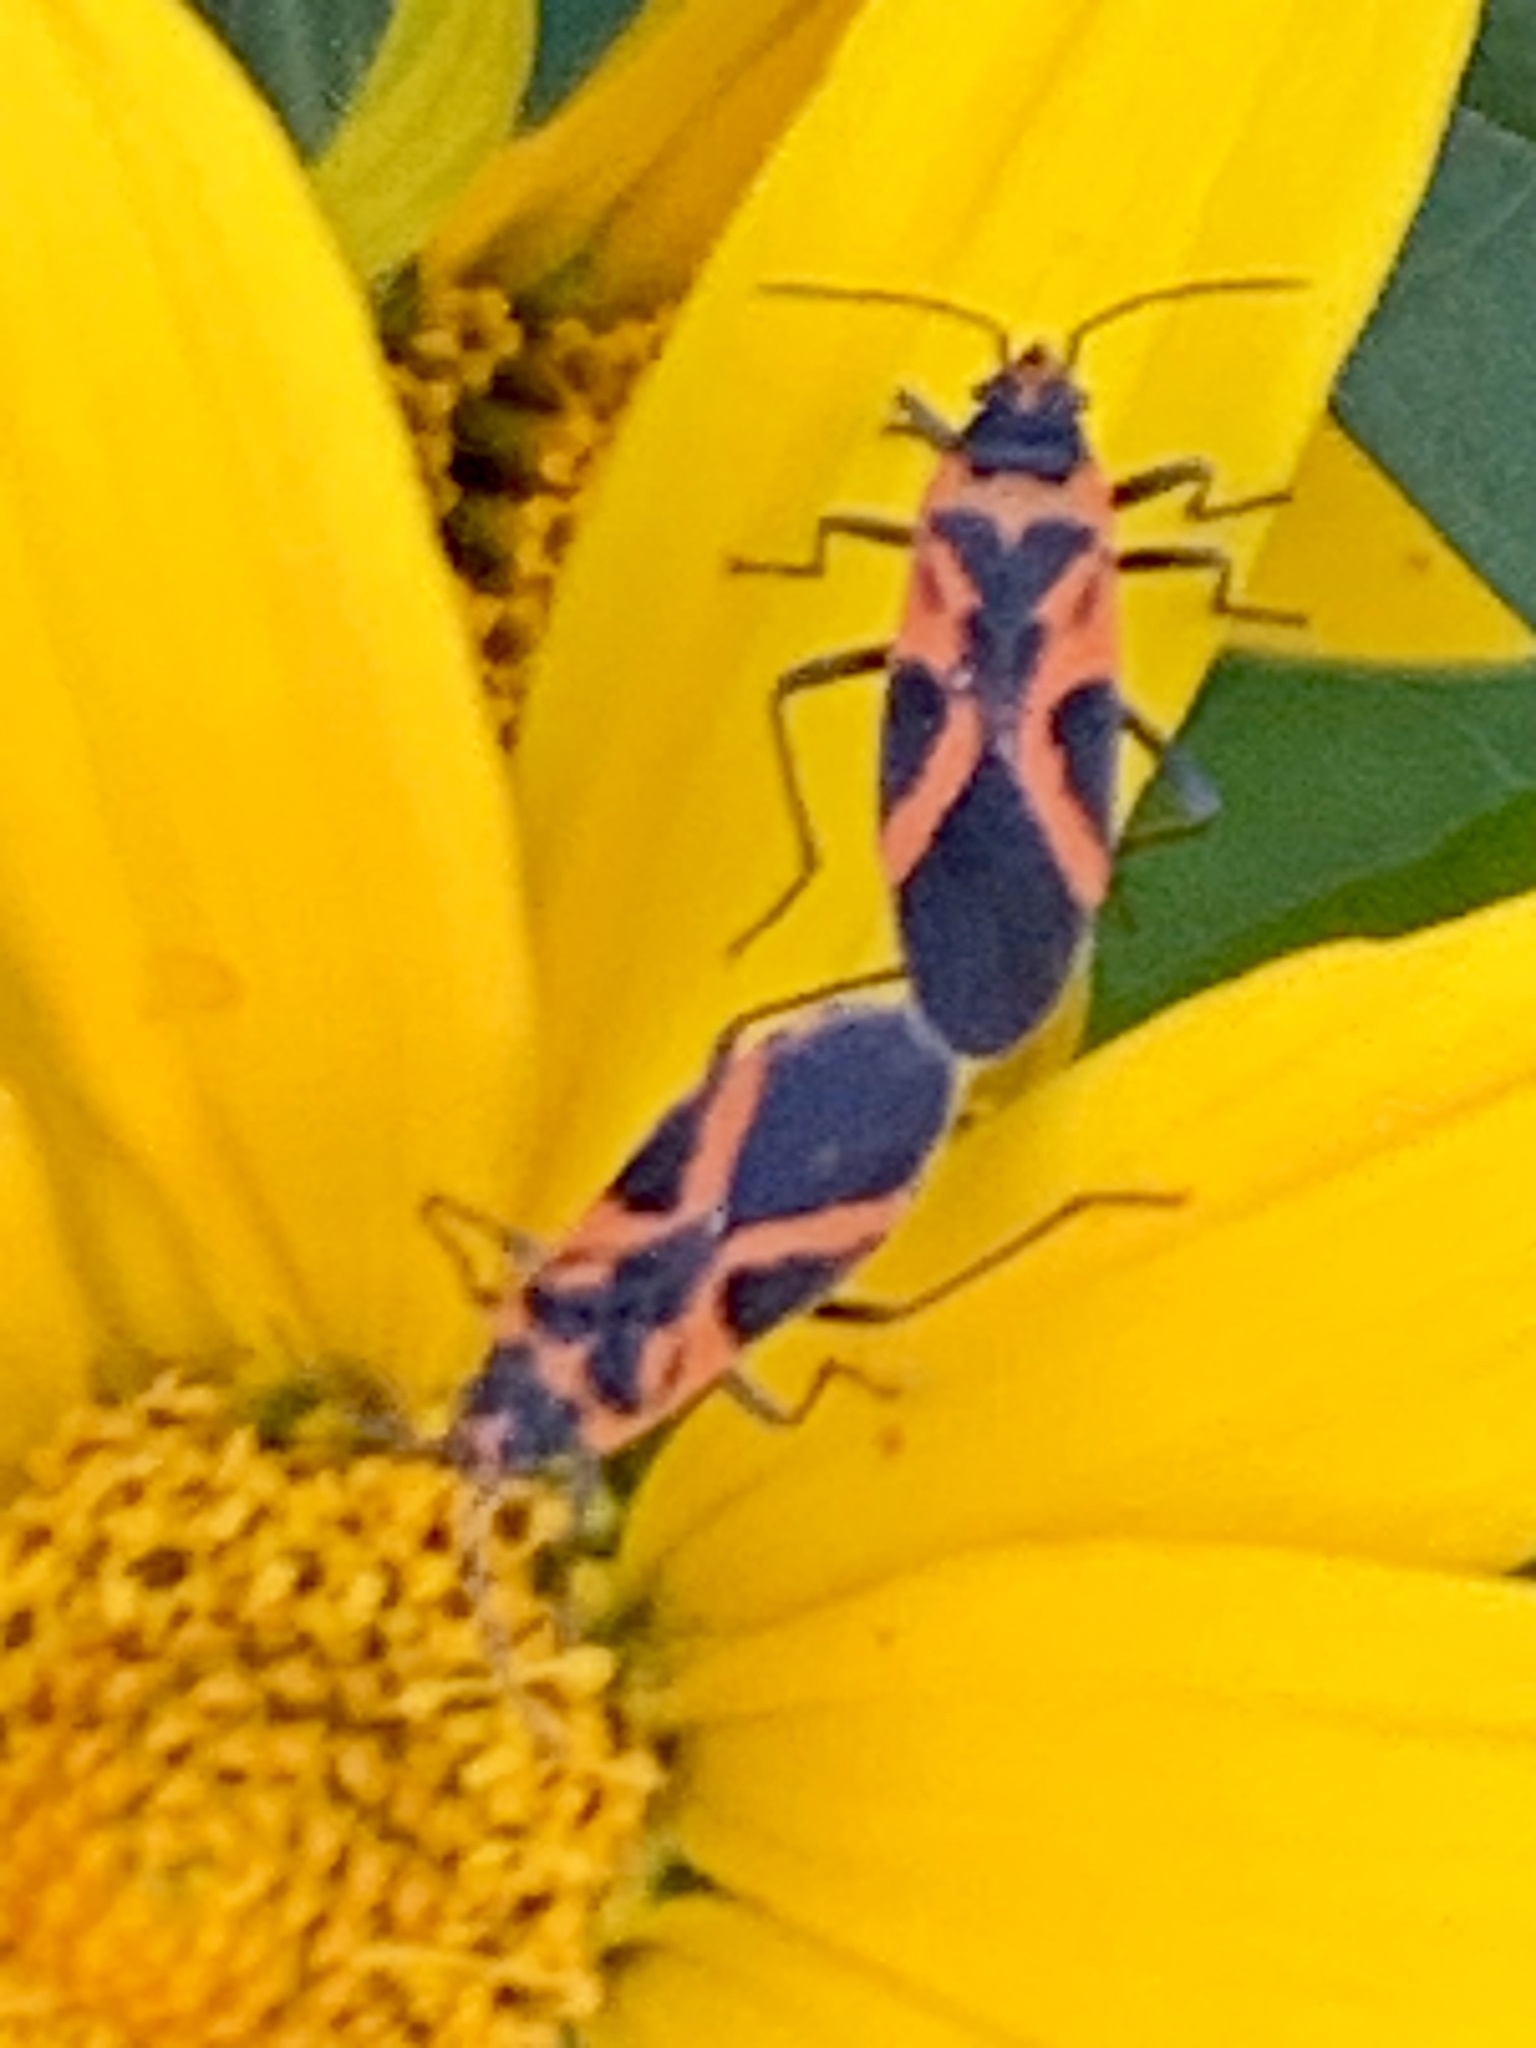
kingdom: Animalia
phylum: Arthropoda
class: Insecta
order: Hemiptera
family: Lygaeidae
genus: Lygaeus
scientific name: Lygaeus turcicus
